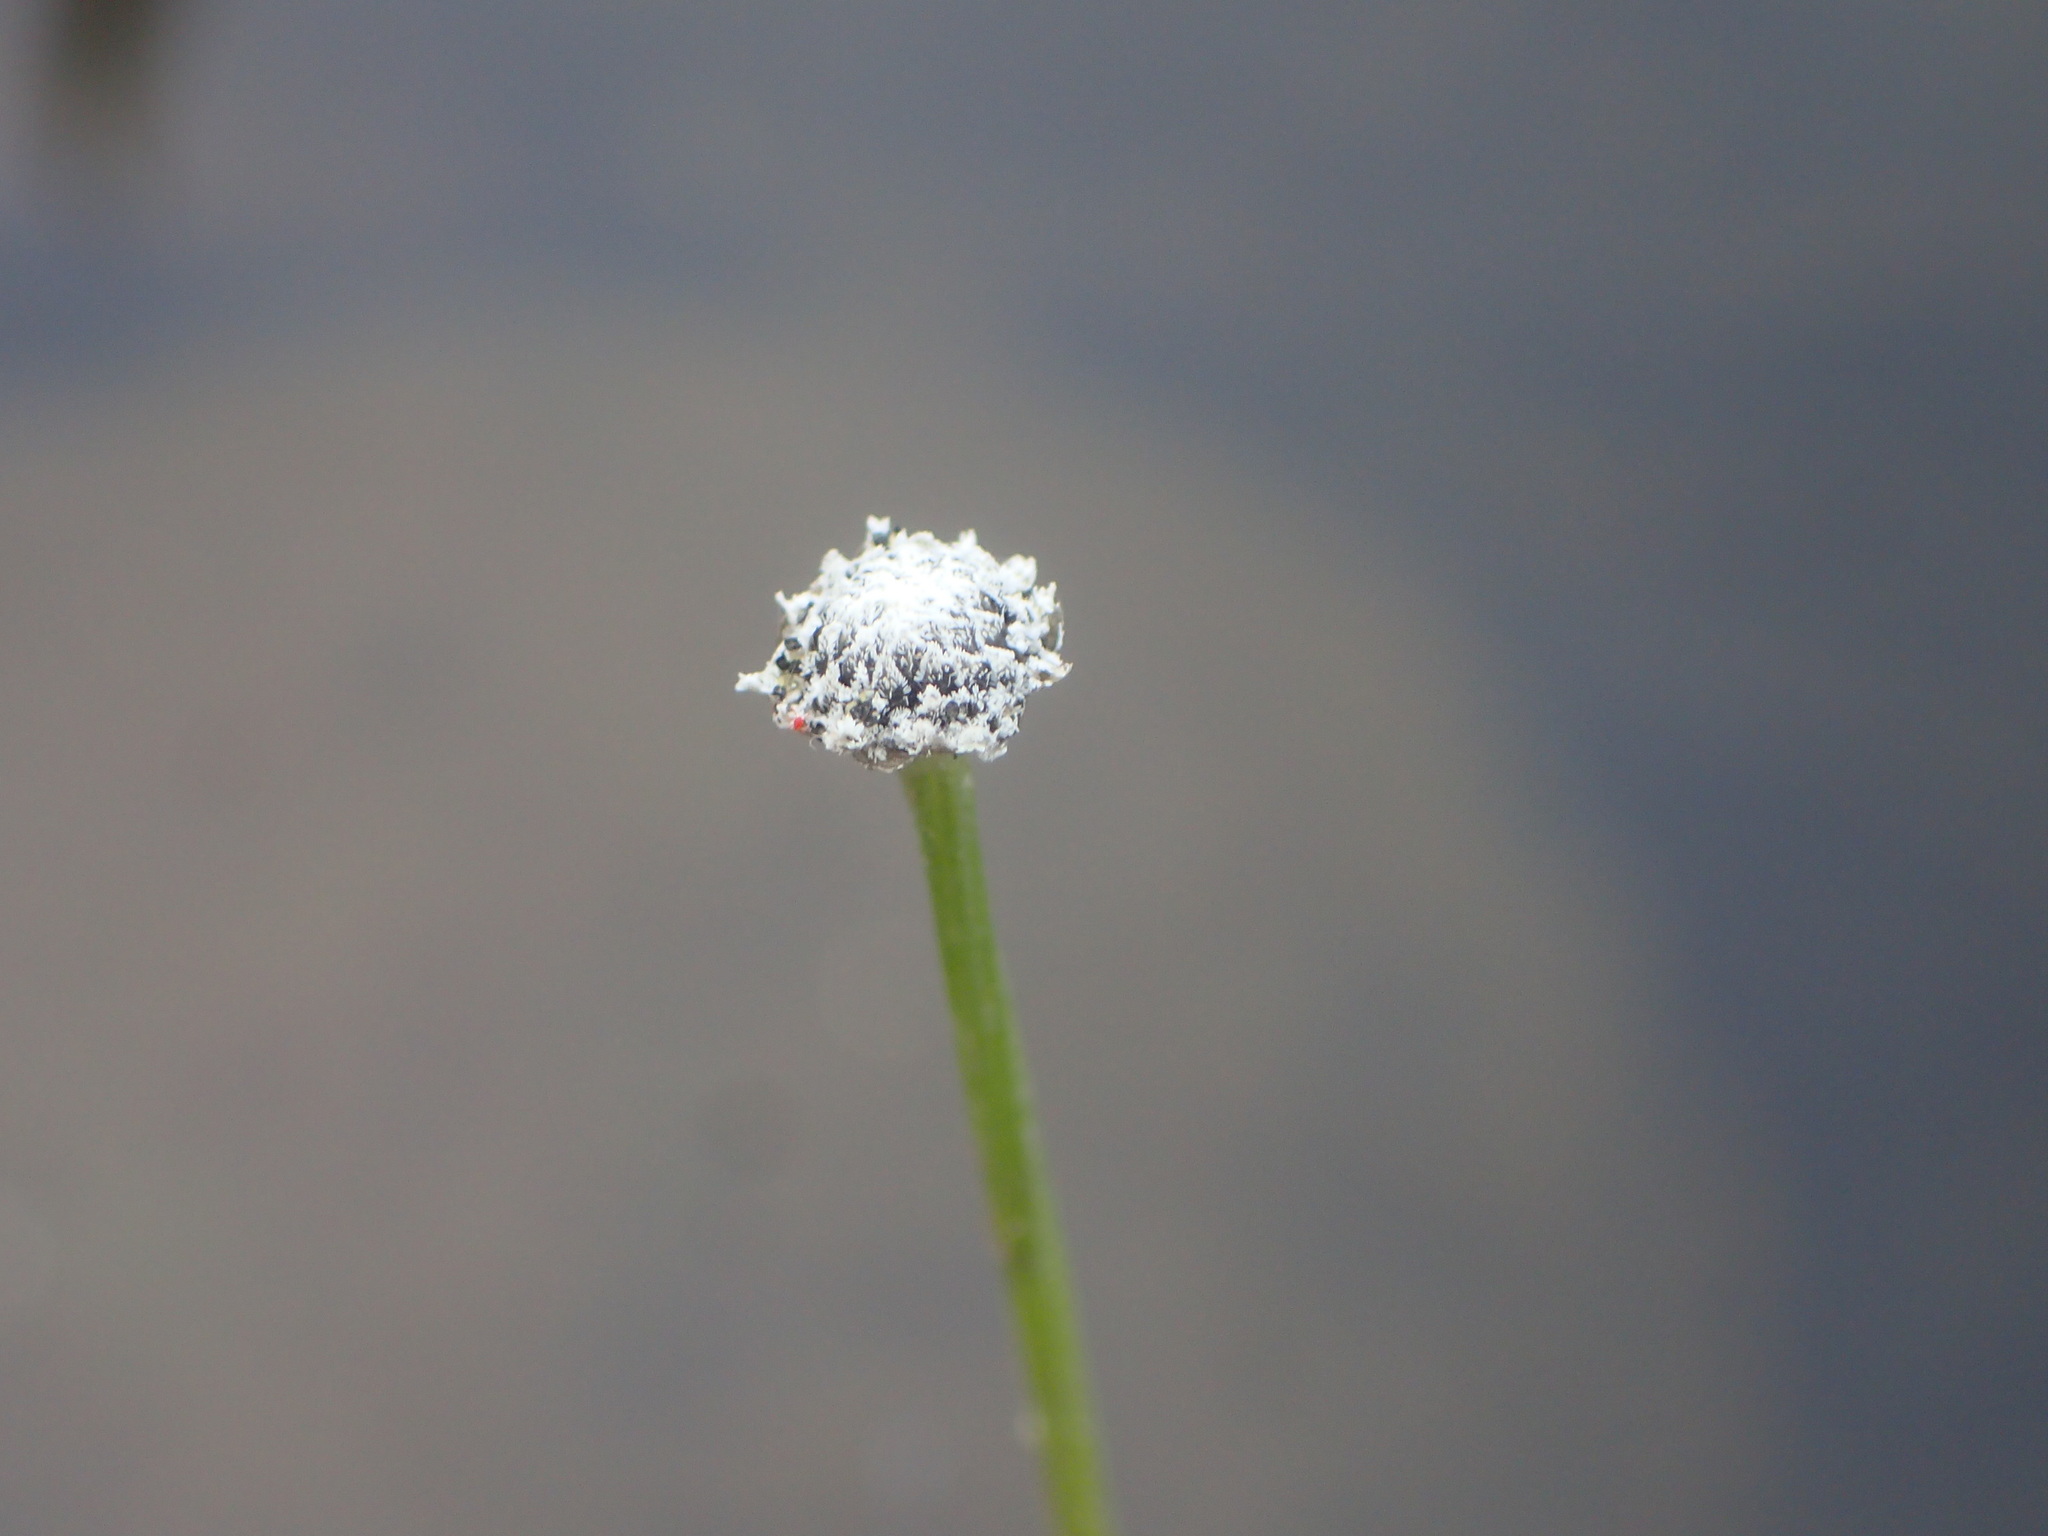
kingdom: Plantae
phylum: Tracheophyta
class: Liliopsida
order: Poales
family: Eriocaulaceae
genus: Eriocaulon
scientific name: Eriocaulon aquaticum
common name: Pipewort
